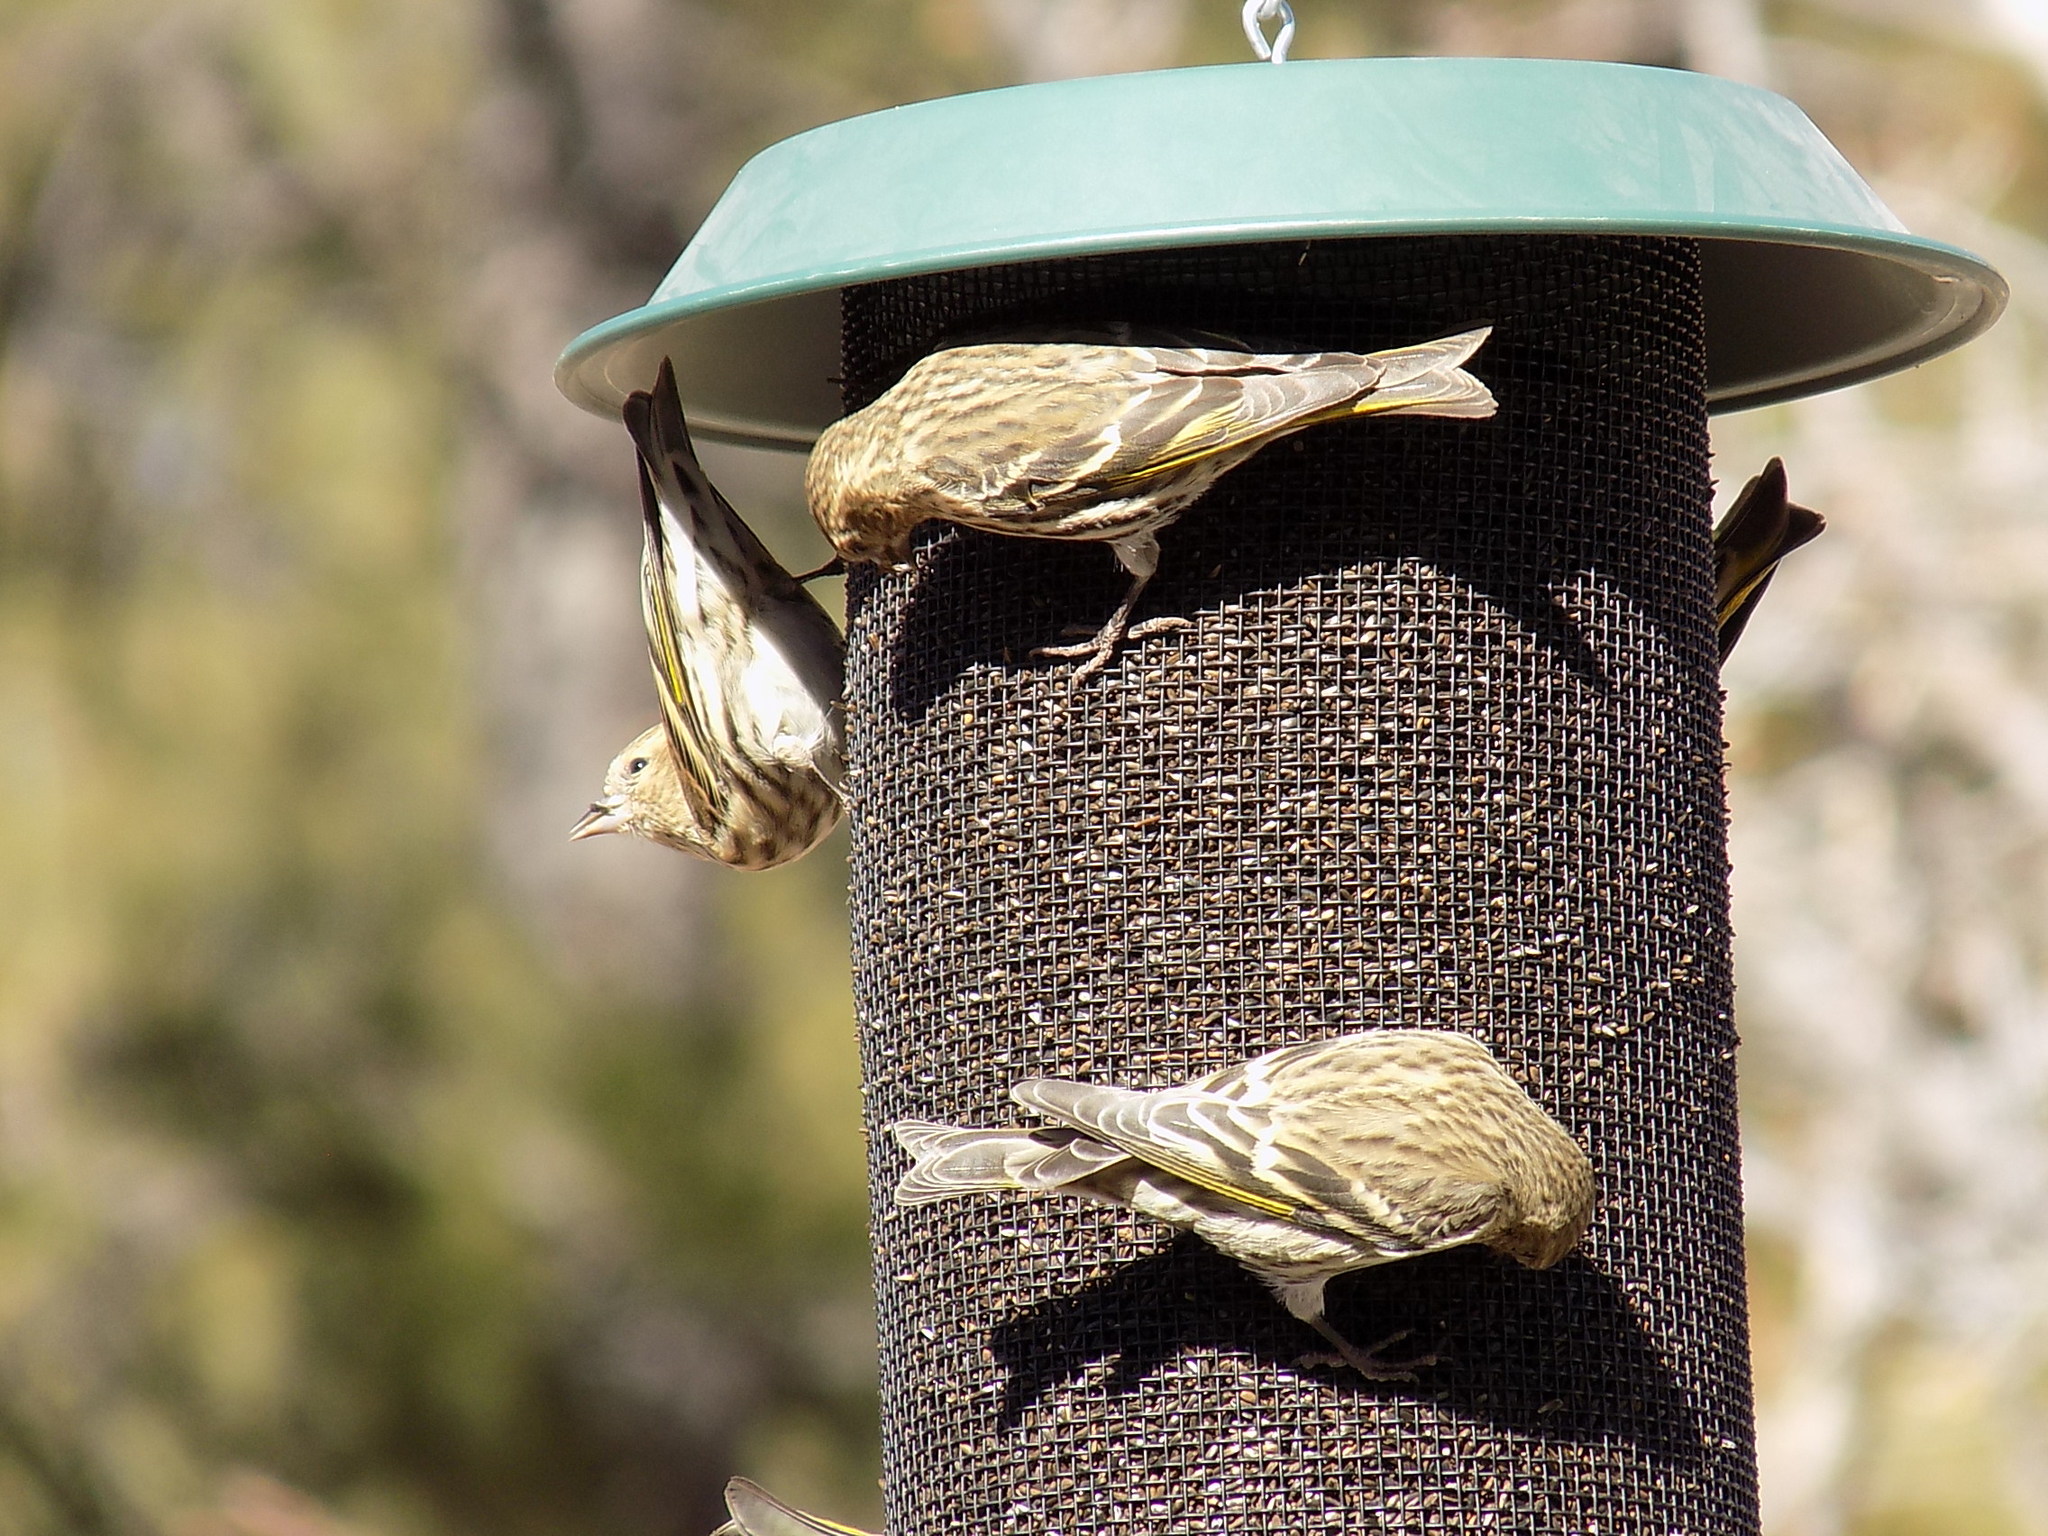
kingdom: Animalia
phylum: Chordata
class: Aves
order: Passeriformes
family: Fringillidae
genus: Spinus
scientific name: Spinus pinus
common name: Pine siskin
